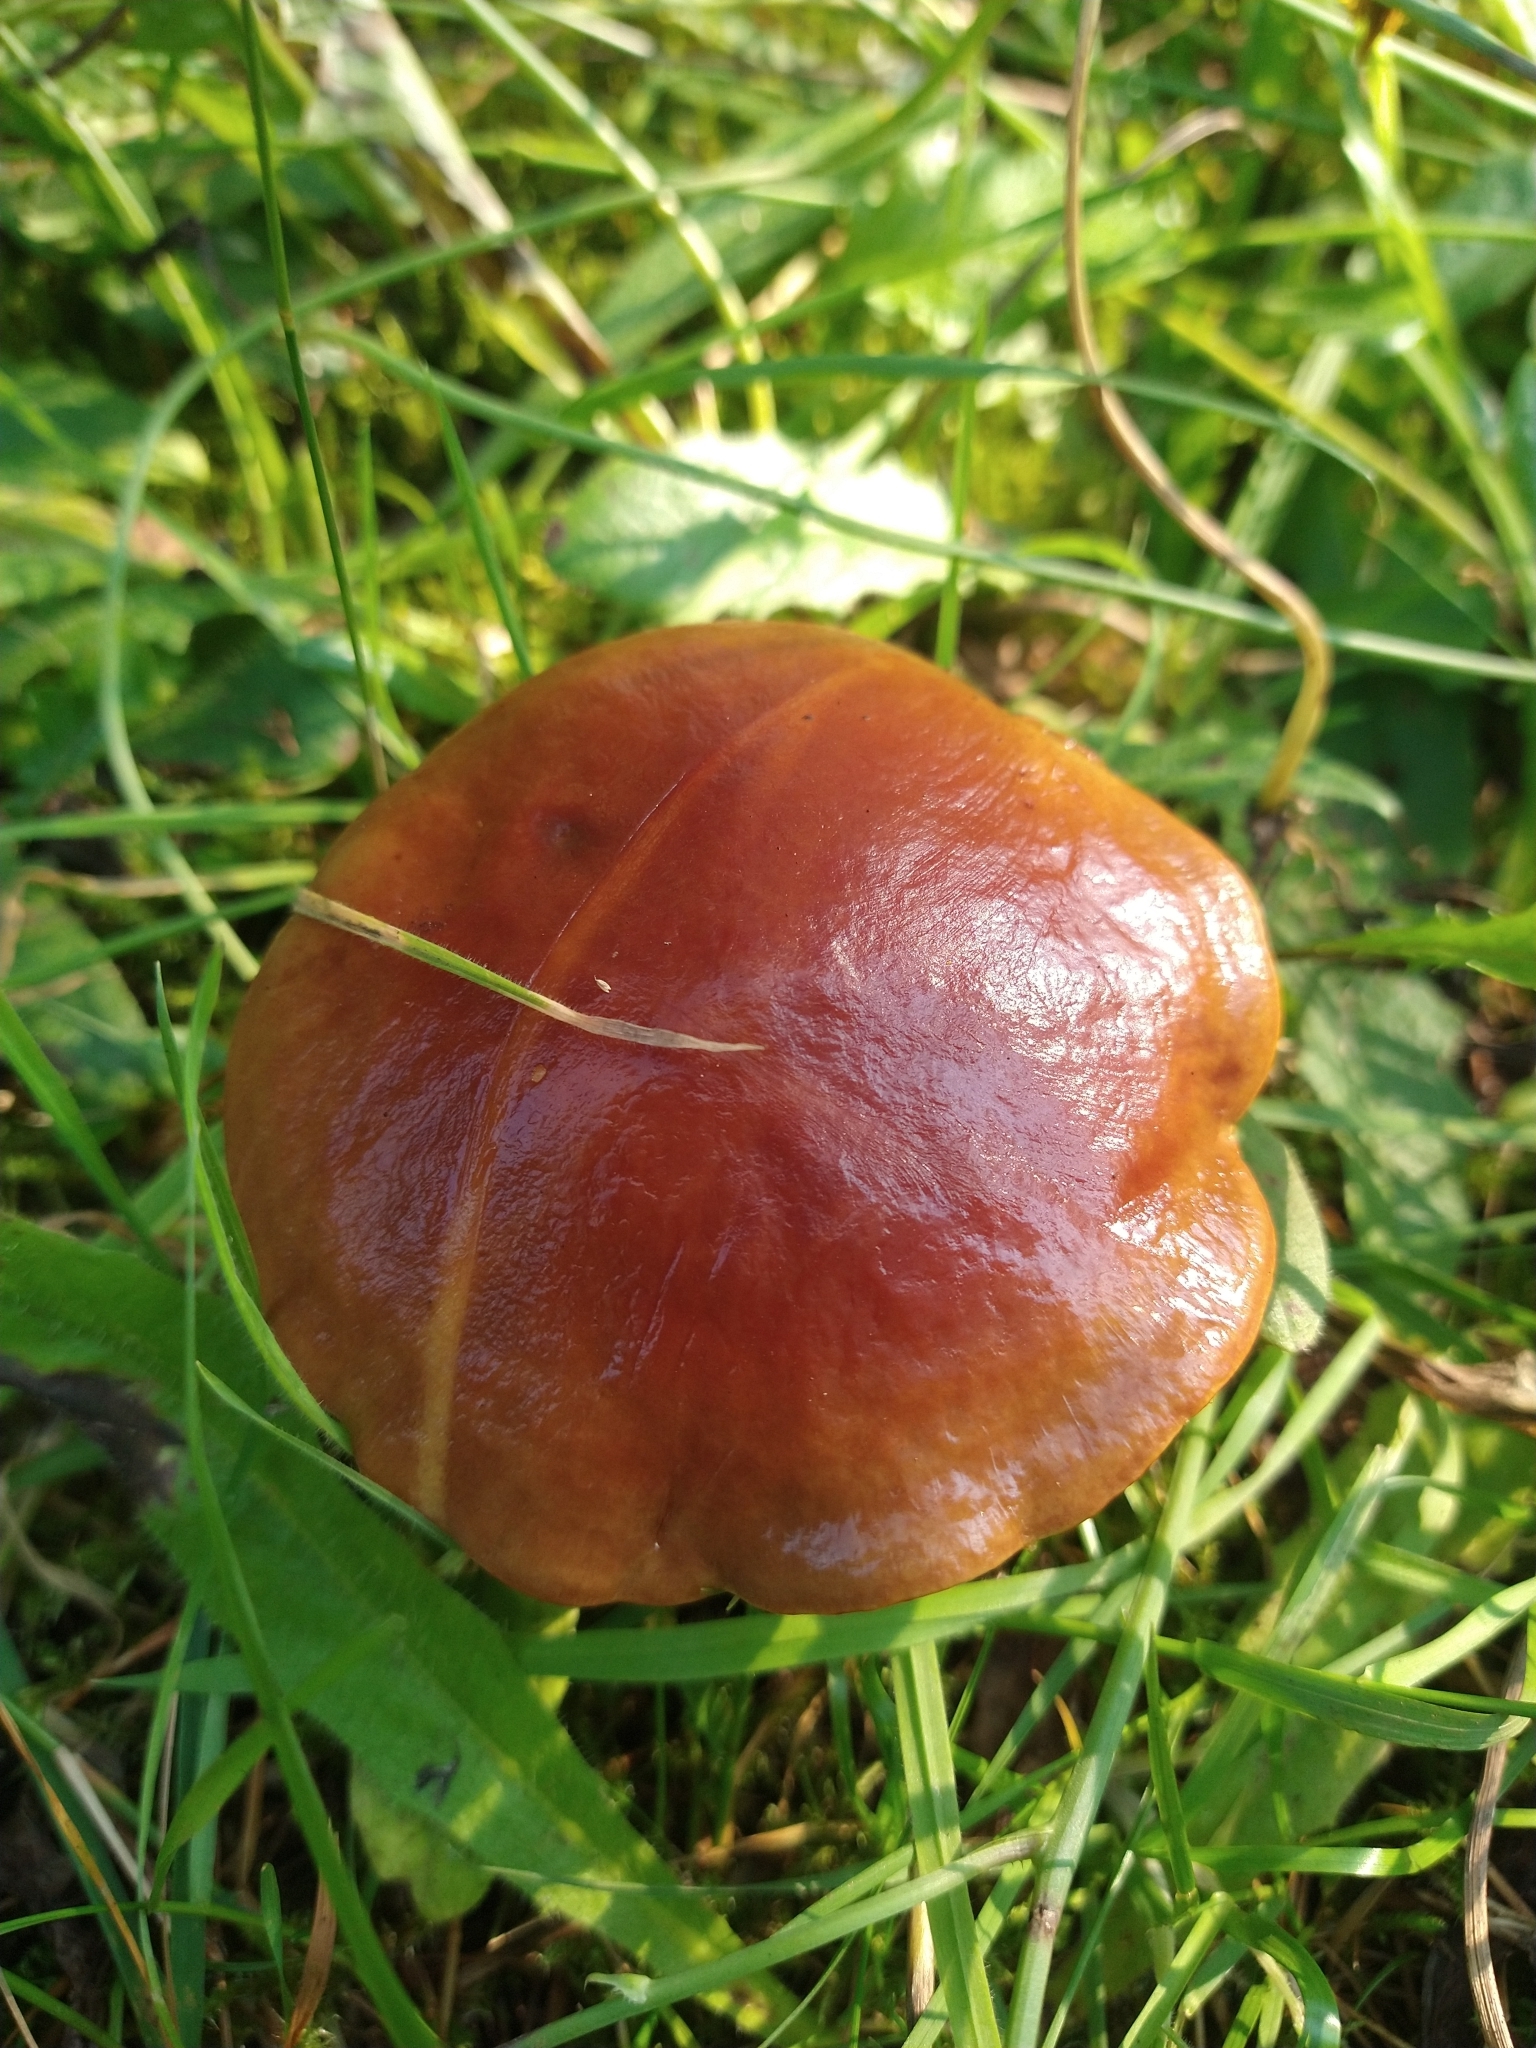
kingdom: Fungi
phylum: Basidiomycota
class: Agaricomycetes
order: Boletales
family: Suillaceae
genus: Suillus
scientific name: Suillus grevillei
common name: Larch bolete
